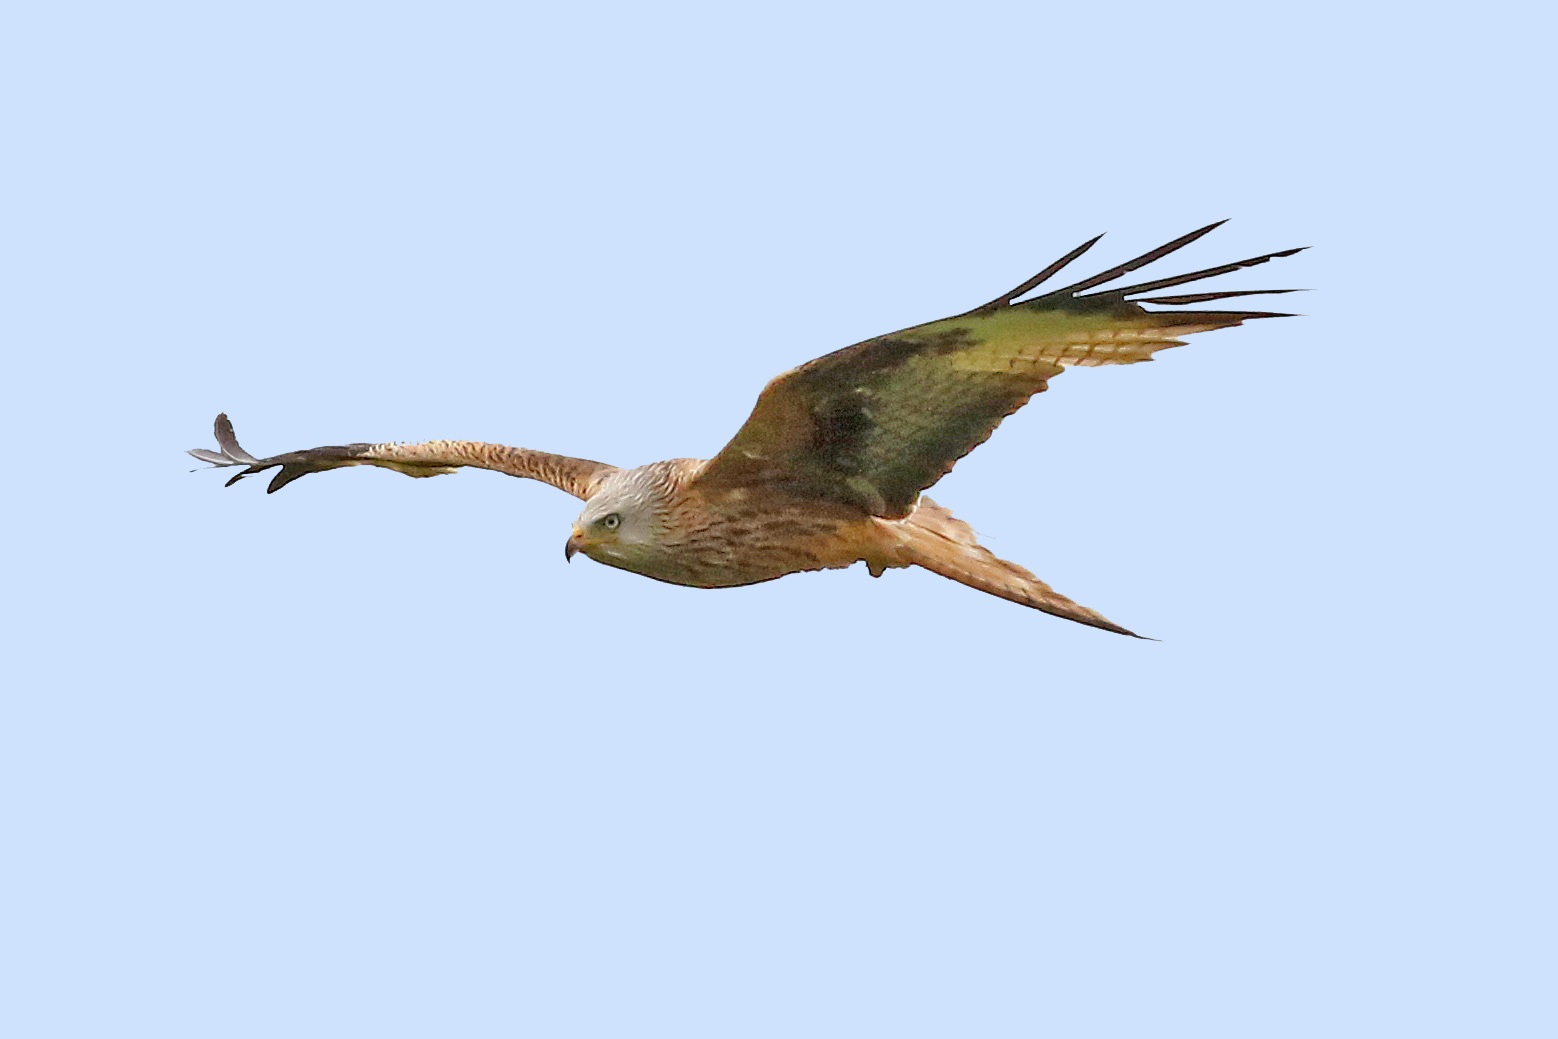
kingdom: Animalia
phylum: Chordata
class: Aves
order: Accipitriformes
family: Accipitridae
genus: Milvus
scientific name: Milvus milvus
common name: Red kite
